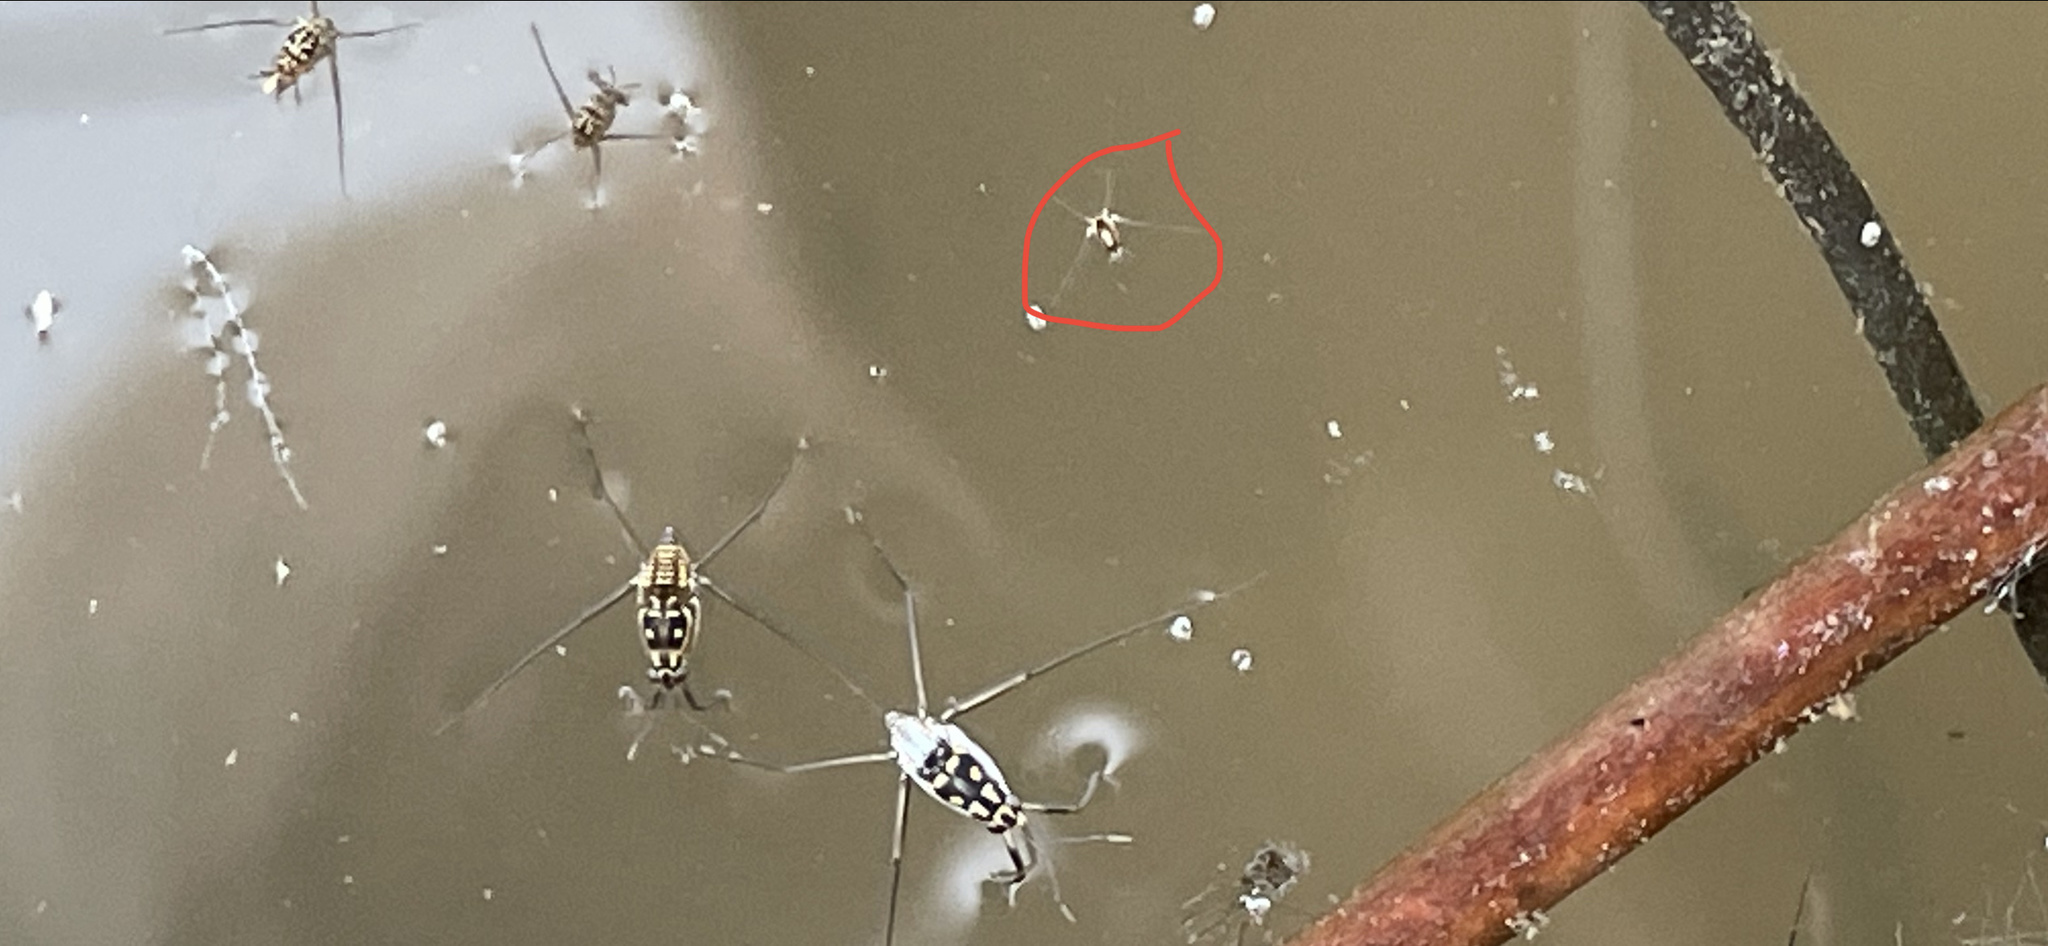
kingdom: Animalia
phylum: Arthropoda
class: Insecta
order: Hemiptera
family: Gerridae
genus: Rheumatobates
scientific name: Rheumatobates
